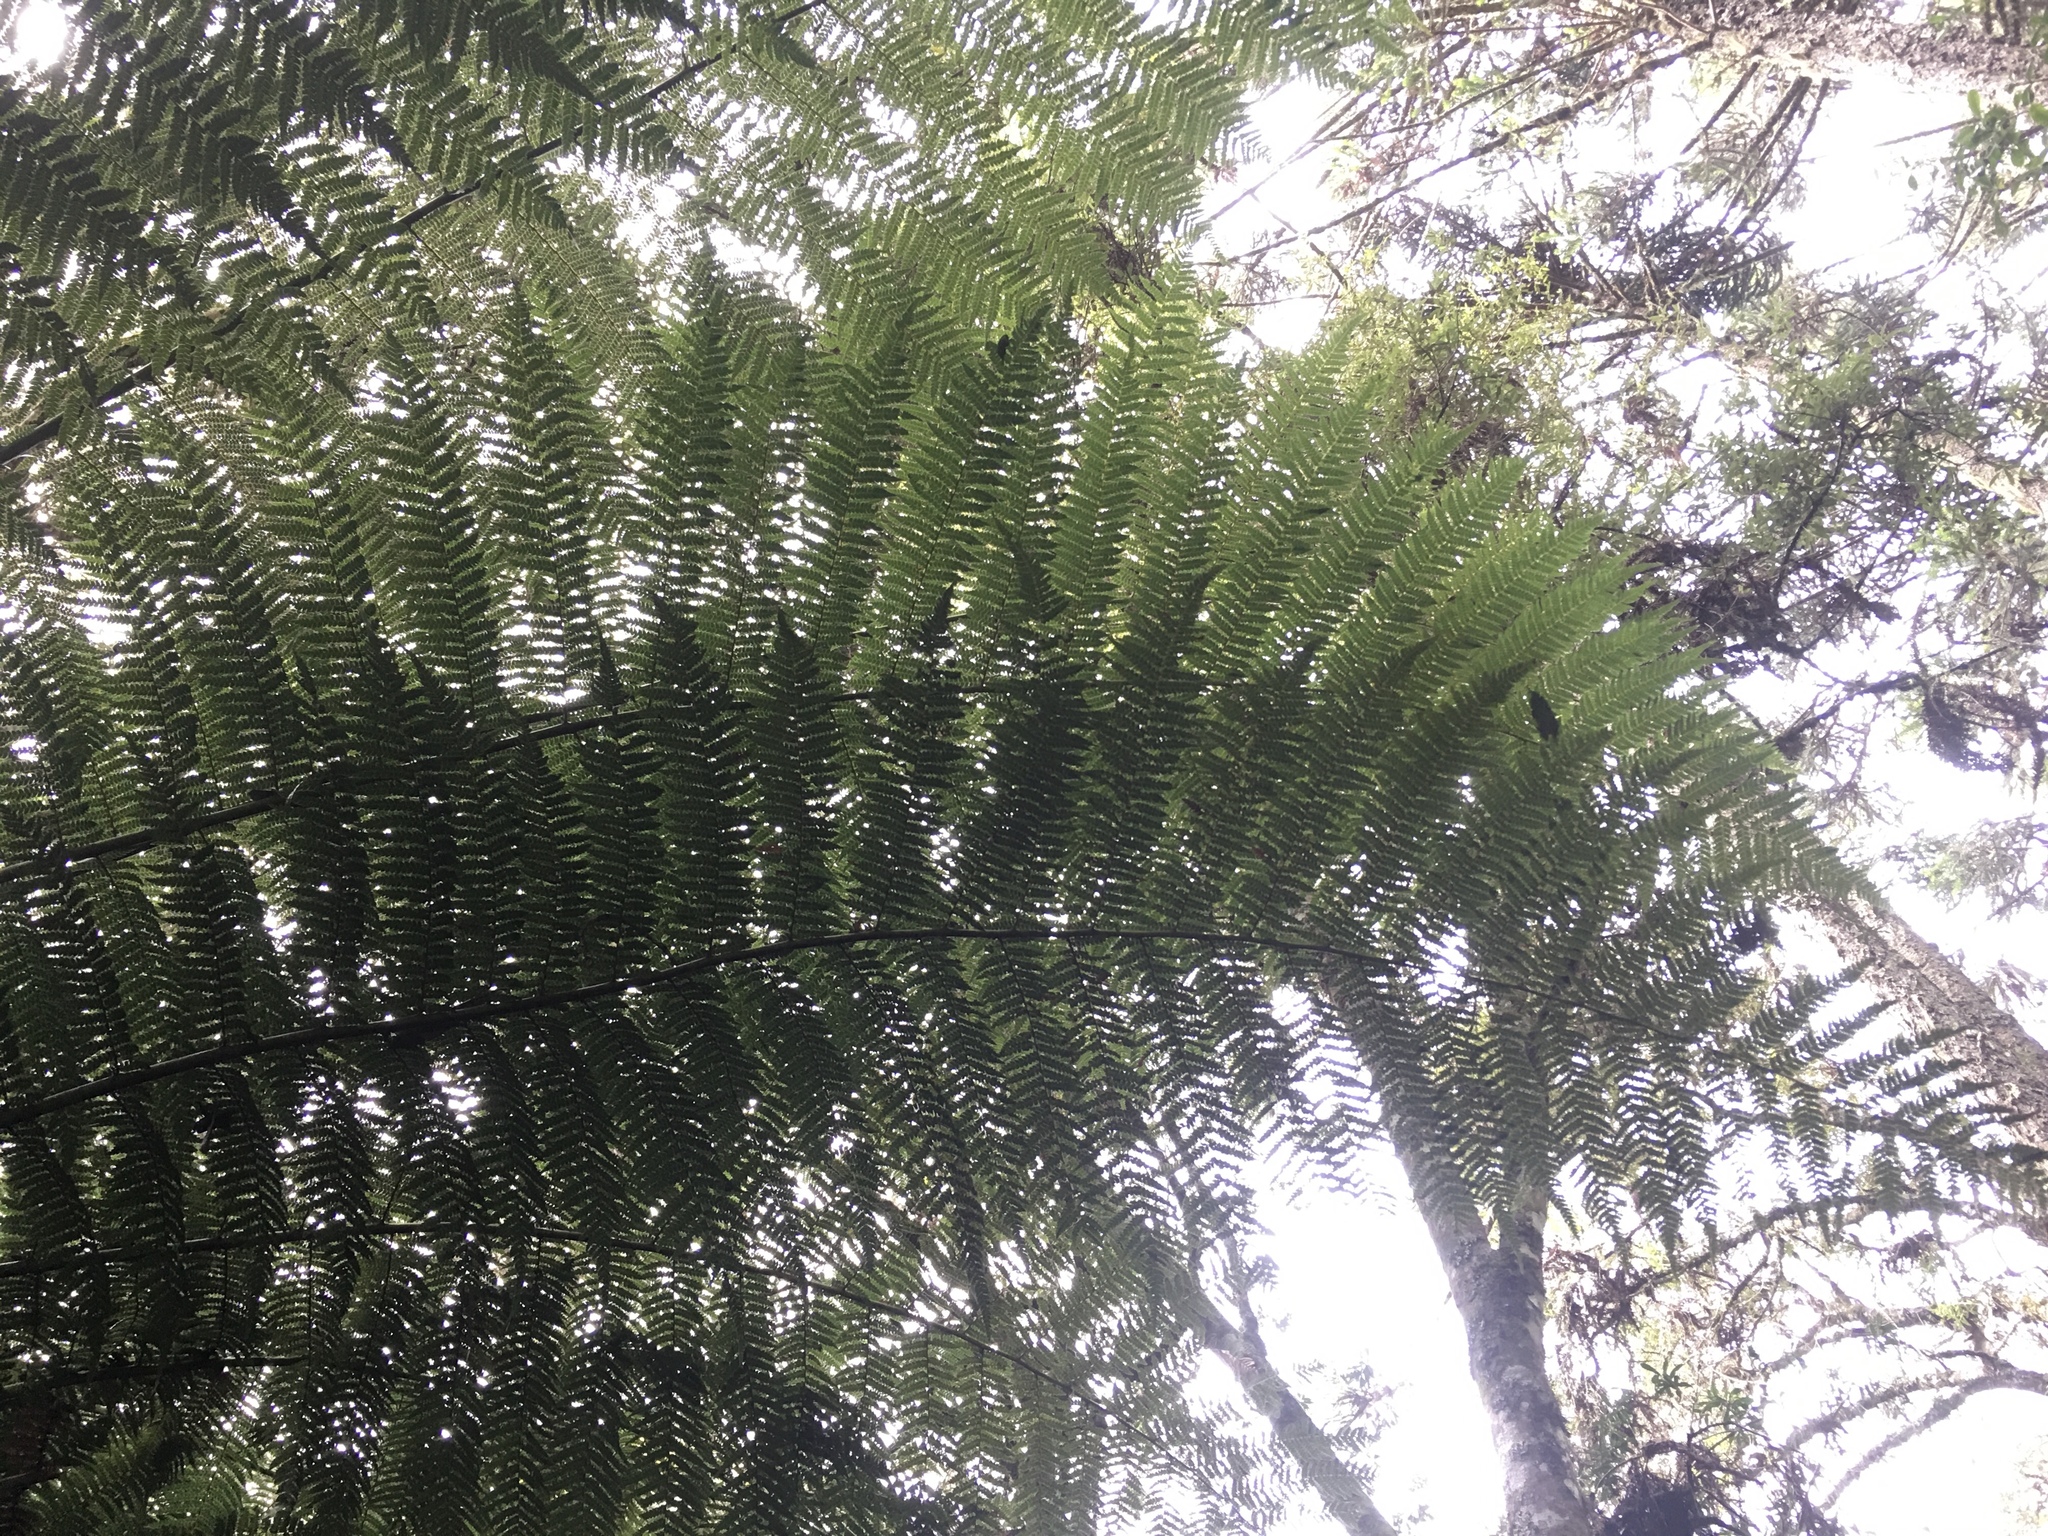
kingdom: Plantae
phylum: Tracheophyta
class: Polypodiopsida
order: Cyatheales
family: Dicksoniaceae
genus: Dicksonia
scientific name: Dicksonia sellowiana
